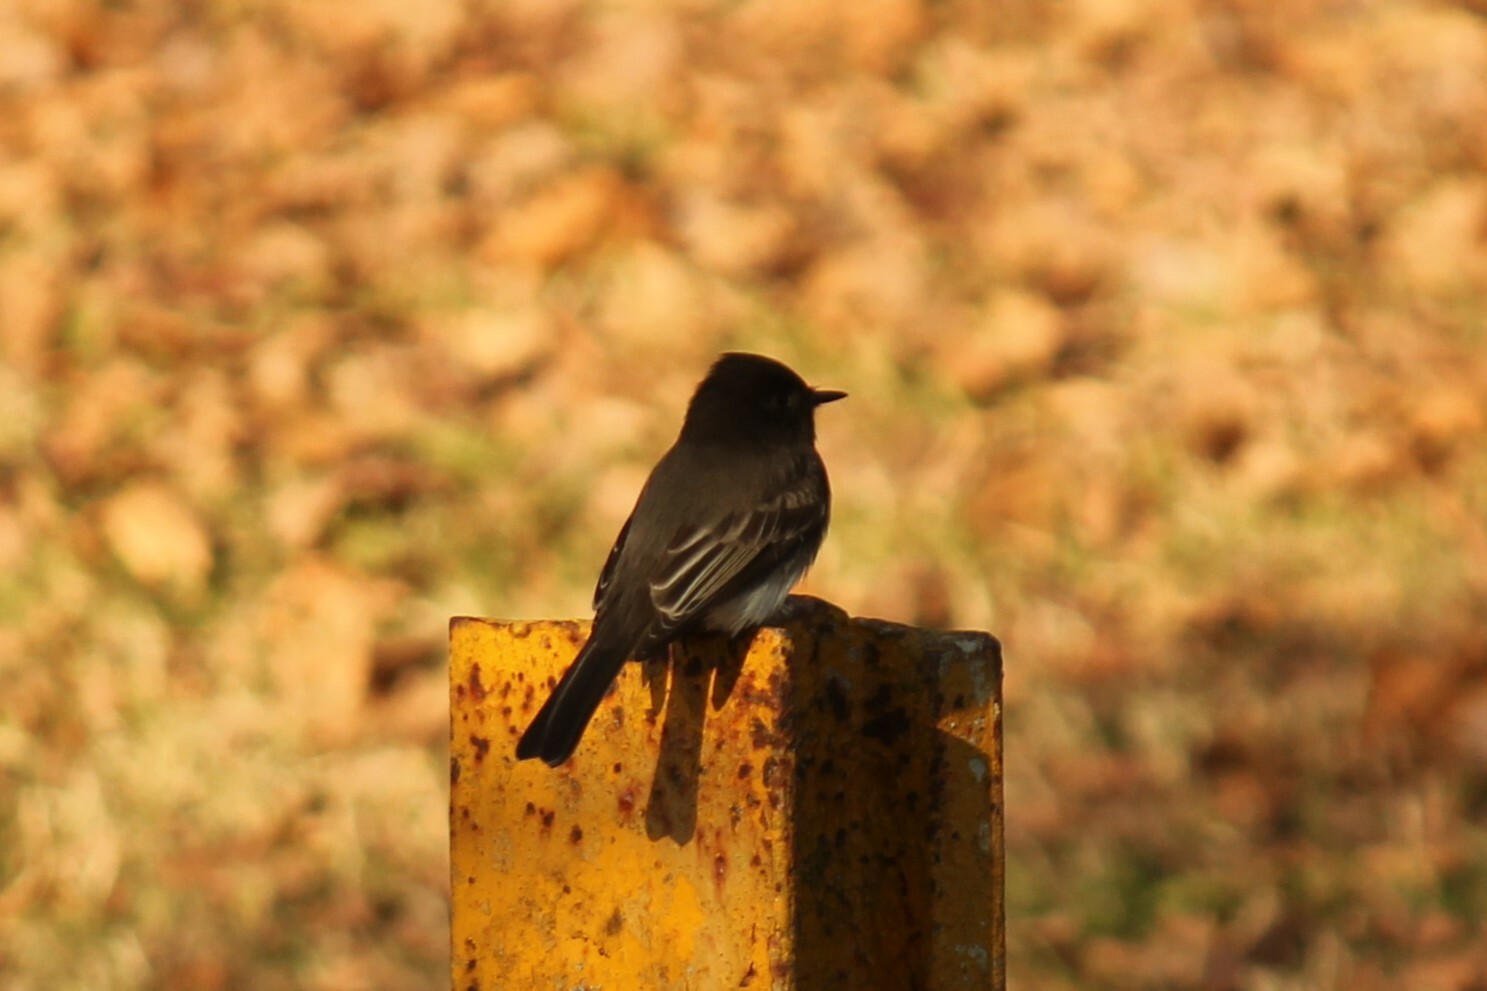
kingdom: Animalia
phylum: Chordata
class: Aves
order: Passeriformes
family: Tyrannidae
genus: Sayornis
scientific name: Sayornis nigricans
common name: Black phoebe
